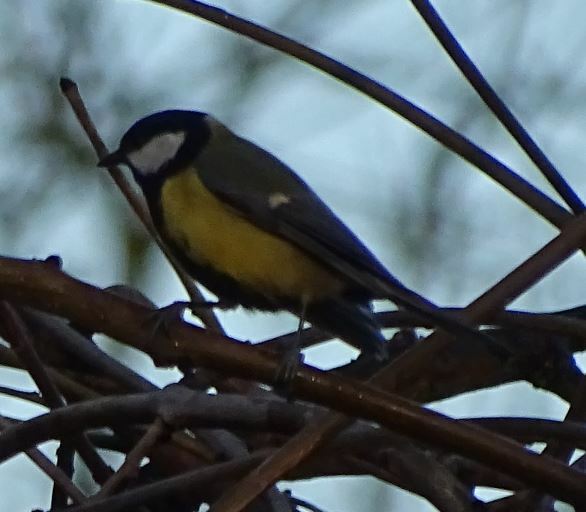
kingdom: Animalia
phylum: Chordata
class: Aves
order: Passeriformes
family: Paridae
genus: Parus
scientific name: Parus major
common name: Great tit
